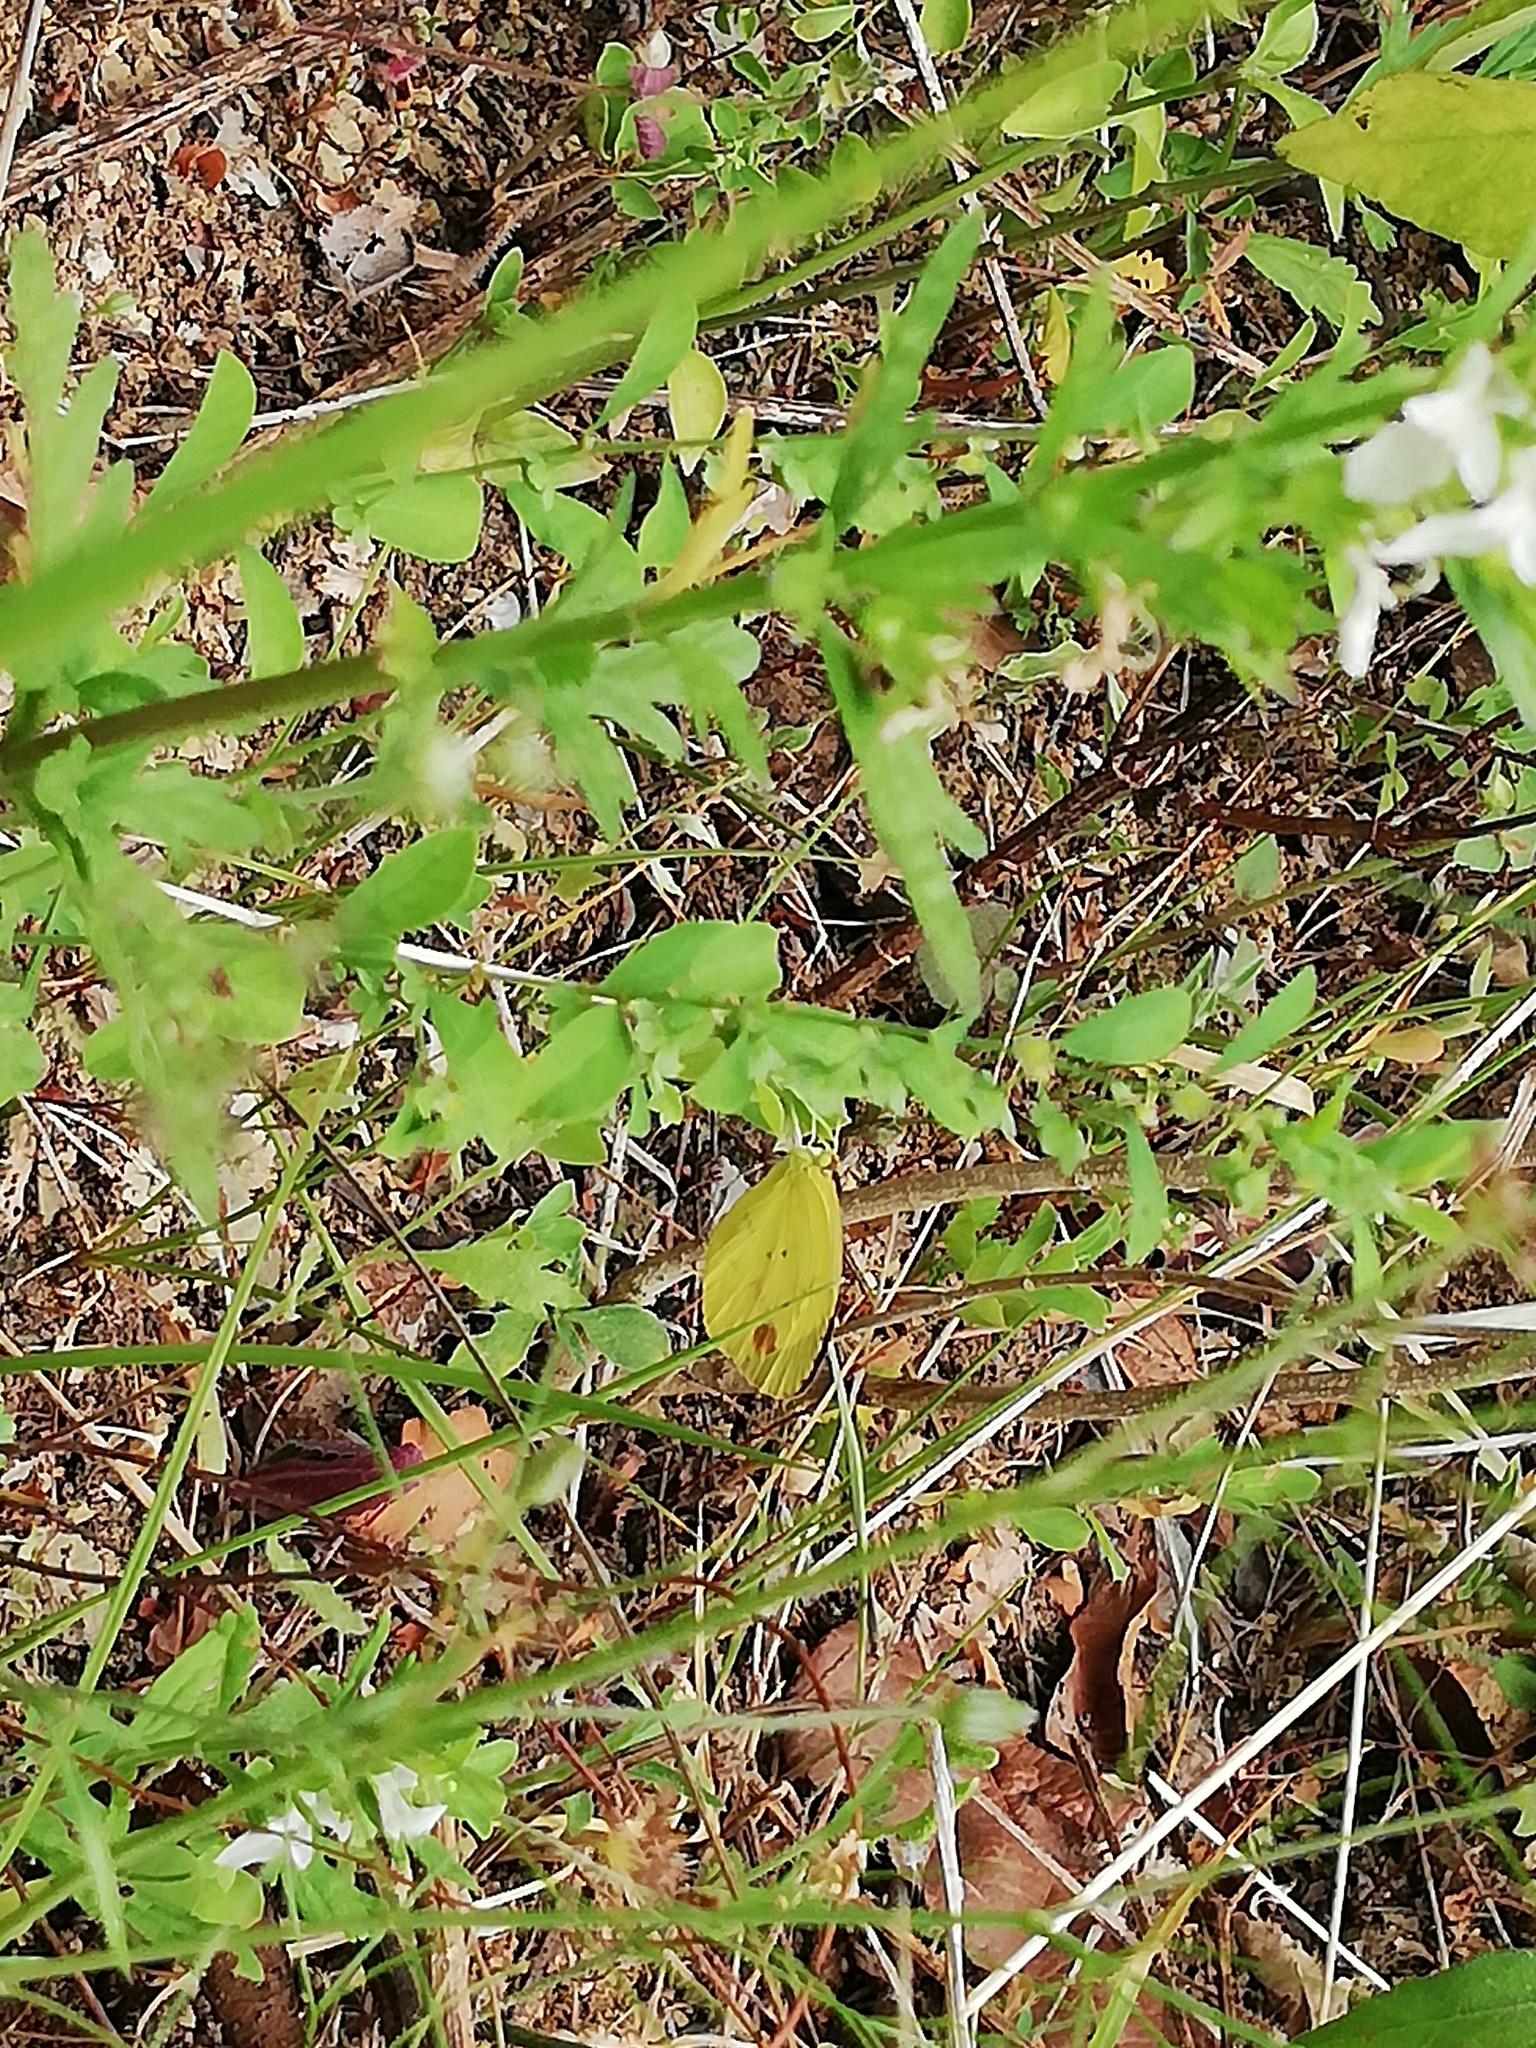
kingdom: Animalia
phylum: Arthropoda
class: Insecta
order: Lepidoptera
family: Pieridae
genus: Pyrisitia
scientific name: Pyrisitia dina
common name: Dina yellow
